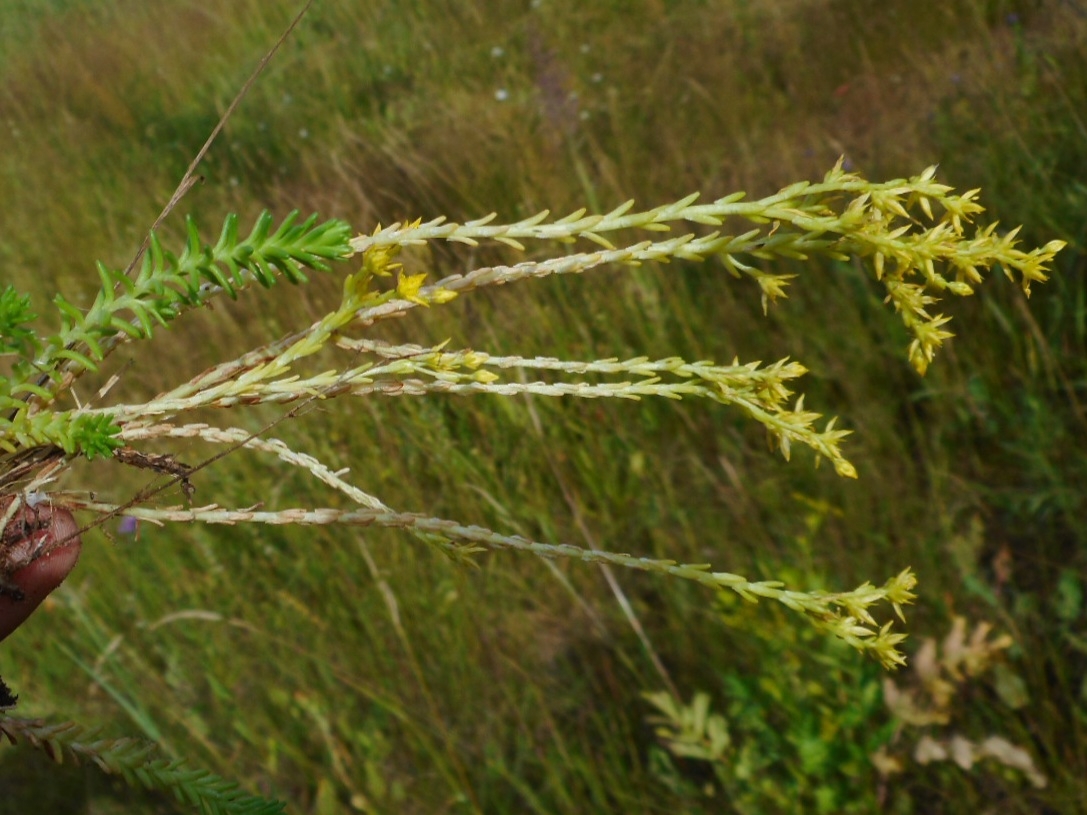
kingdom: Plantae
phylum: Tracheophyta
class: Magnoliopsida
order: Saxifragales
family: Crassulaceae
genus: Sedum
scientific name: Sedum sexangulare
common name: Tasteless stonecrop
